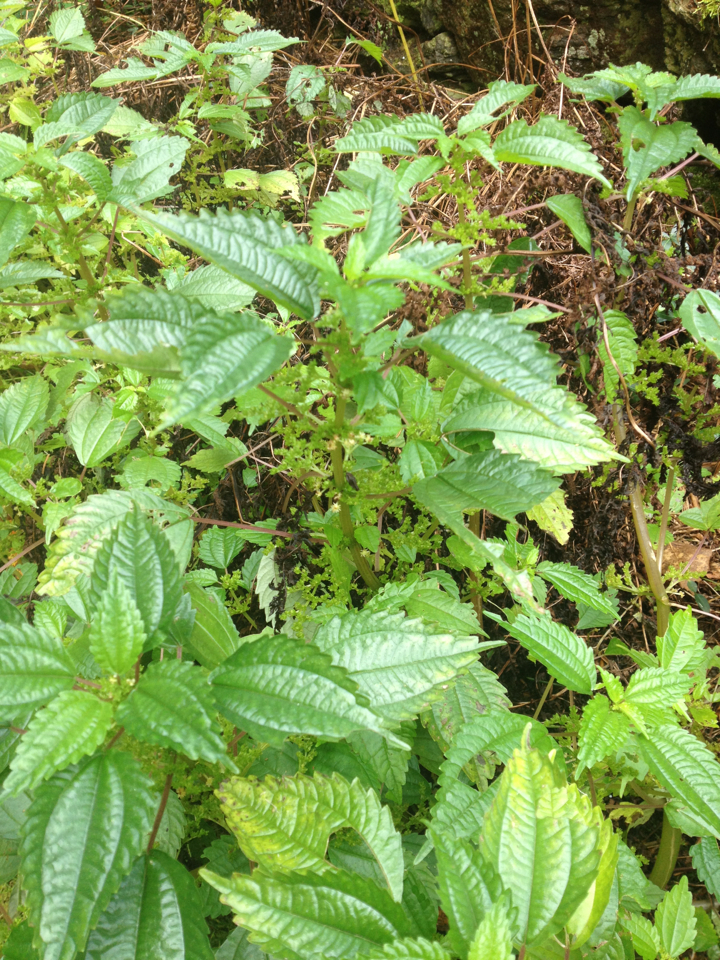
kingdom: Plantae
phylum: Tracheophyta
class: Magnoliopsida
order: Rosales
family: Urticaceae
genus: Pilea
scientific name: Pilea pumila
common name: Clearweed
